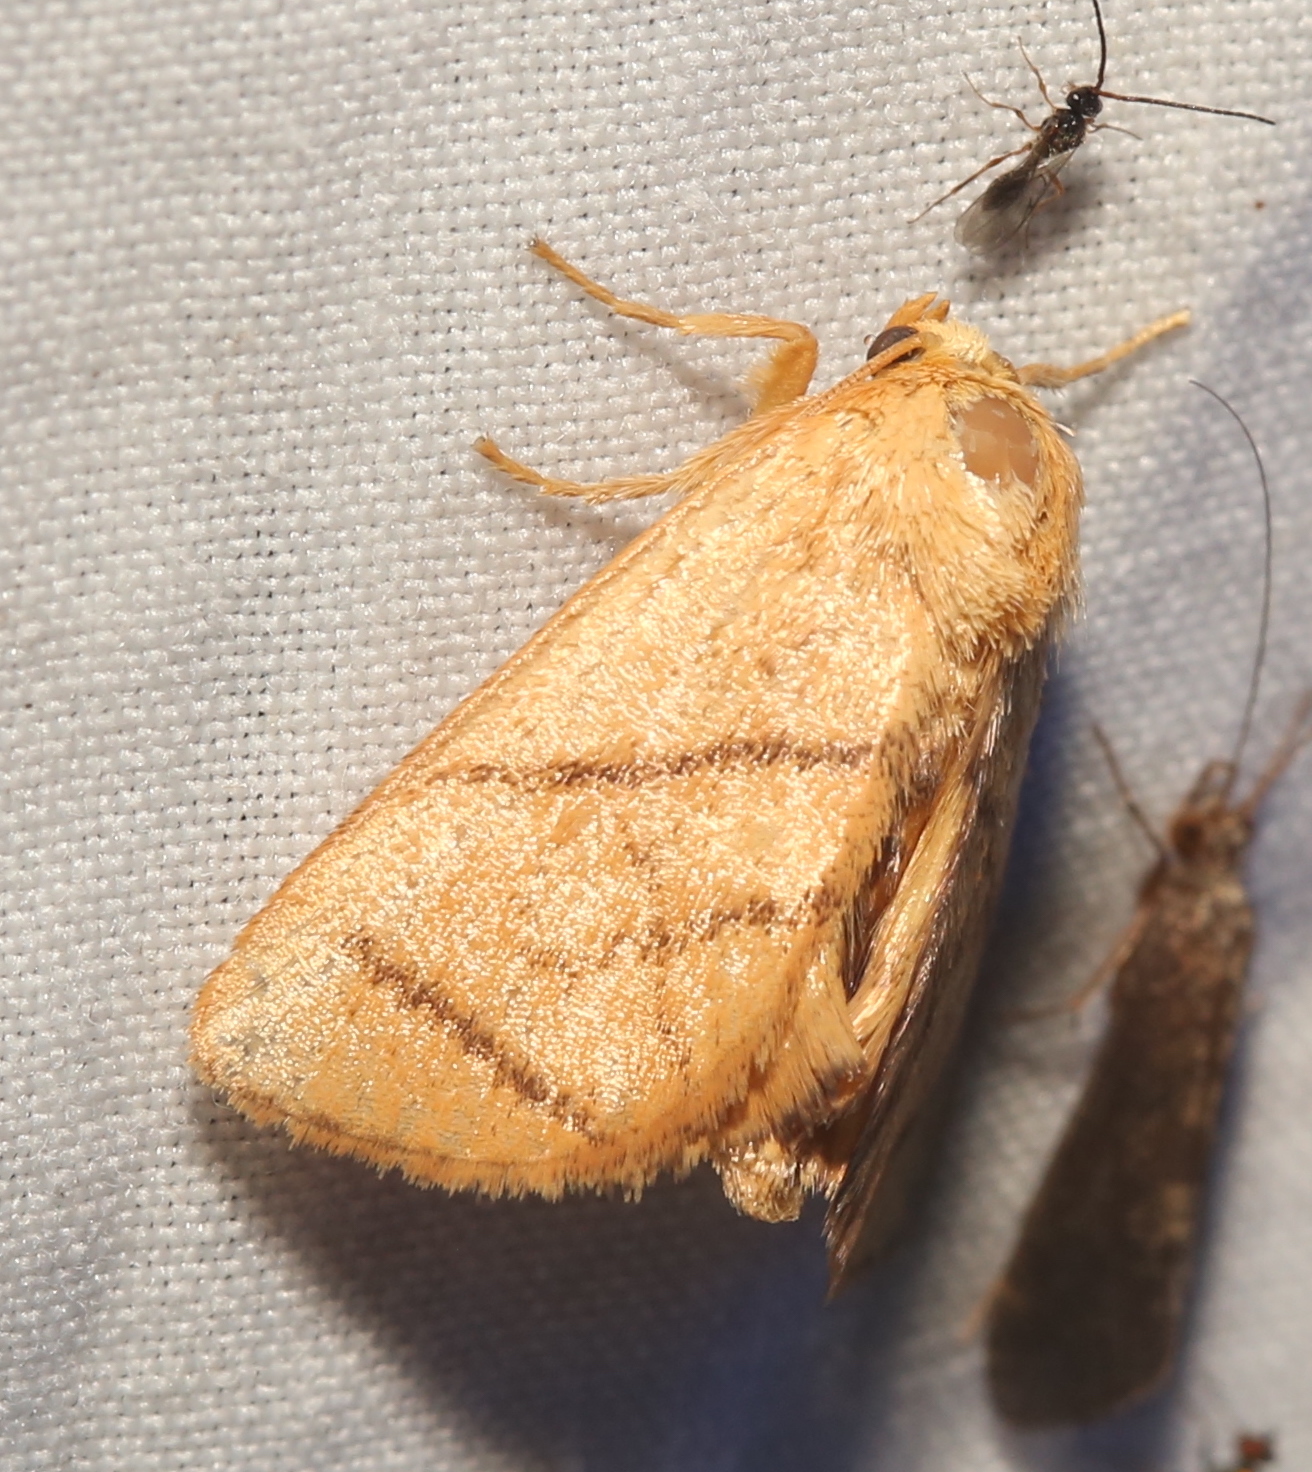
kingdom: Animalia
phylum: Arthropoda
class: Insecta
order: Lepidoptera
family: Limacodidae
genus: Apoda
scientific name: Apoda y-inversa
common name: Yellow-collared slug moth
